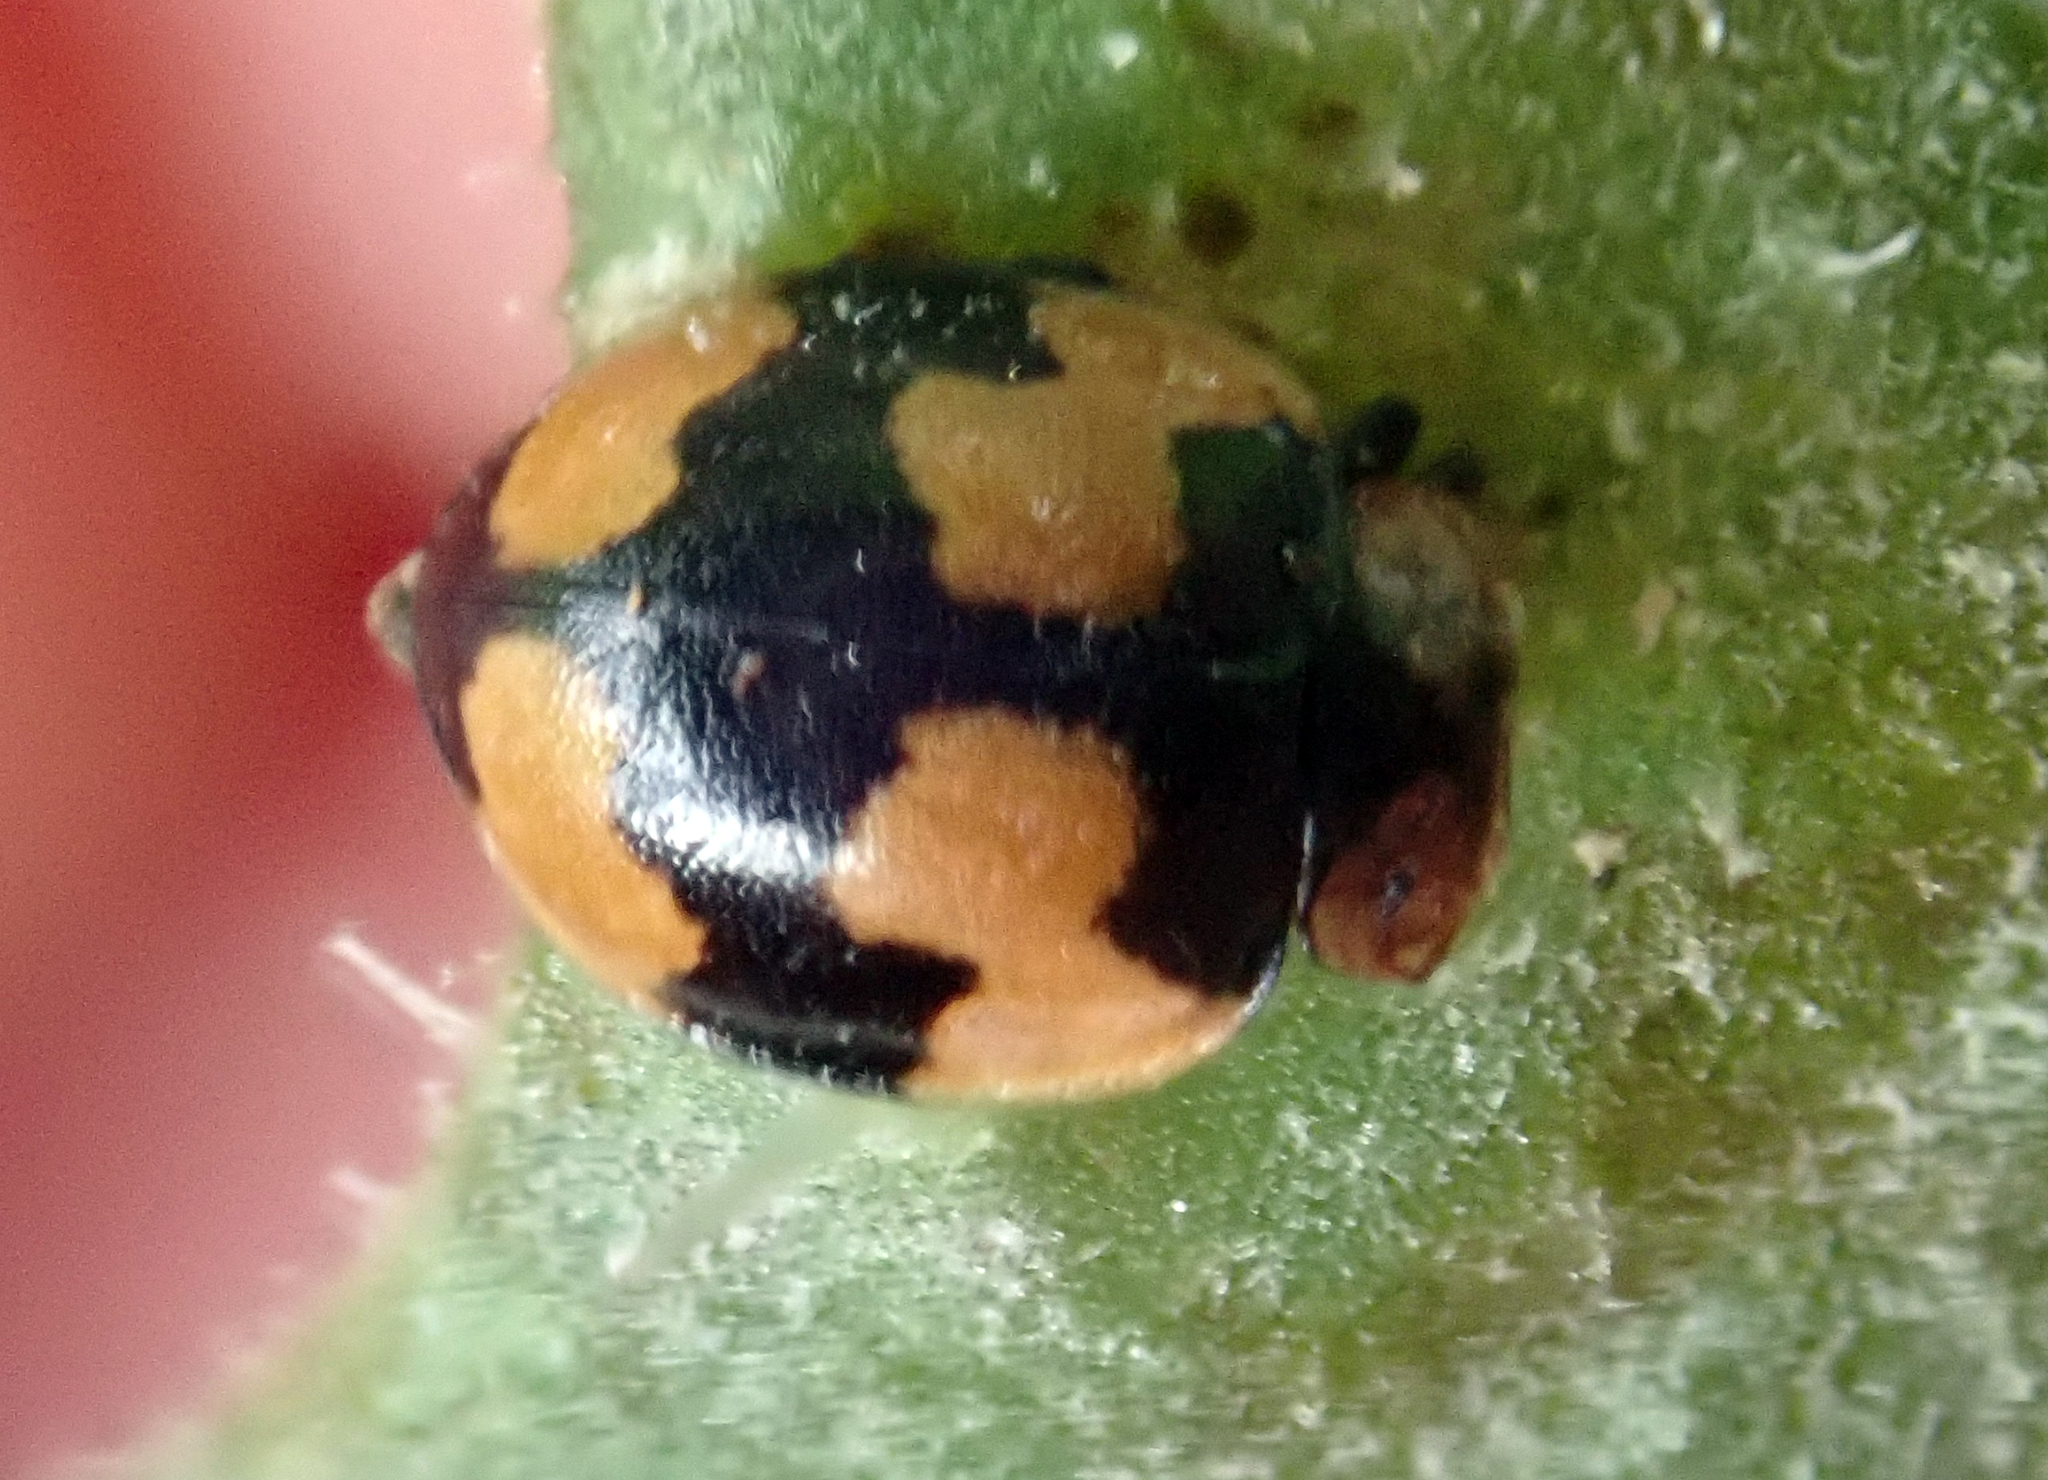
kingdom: Animalia
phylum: Arthropoda
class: Insecta
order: Coleoptera
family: Coccinellidae
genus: Illeis
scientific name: Illeis galbula
